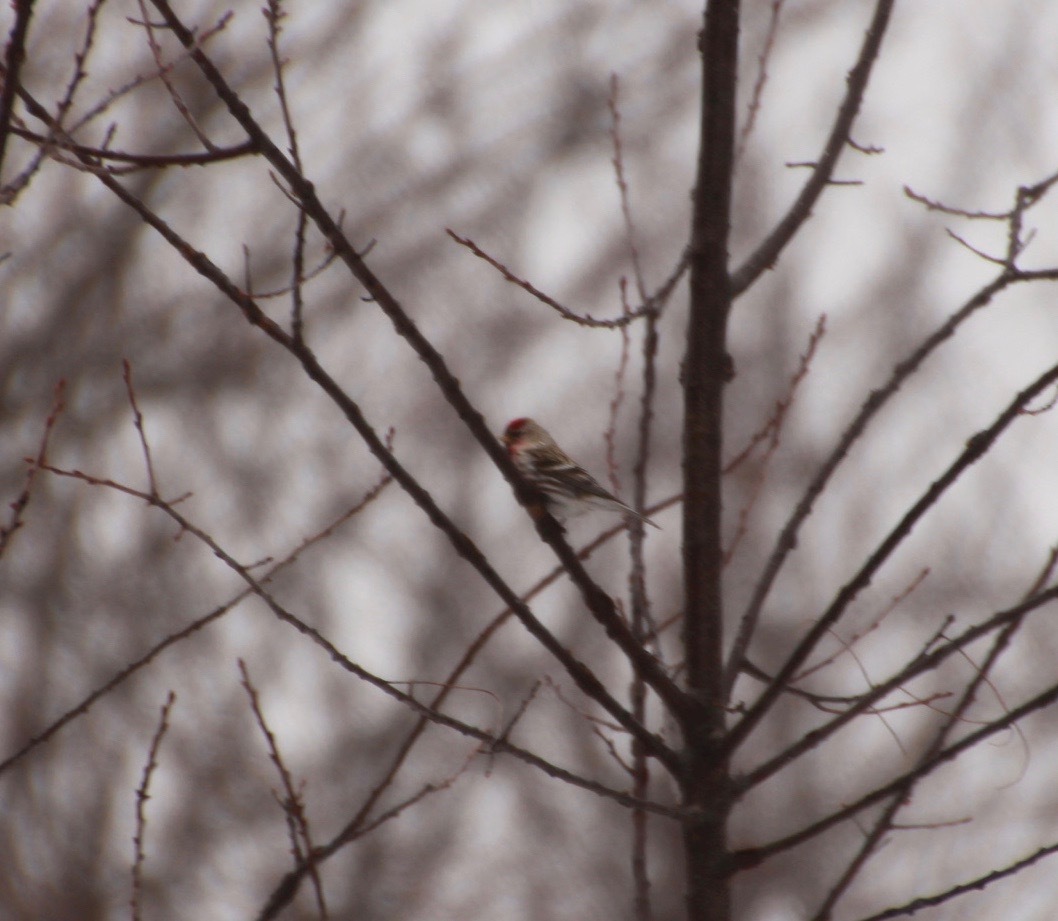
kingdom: Animalia
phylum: Chordata
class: Aves
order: Passeriformes
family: Fringillidae
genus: Acanthis
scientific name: Acanthis flammea
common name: Common redpoll
